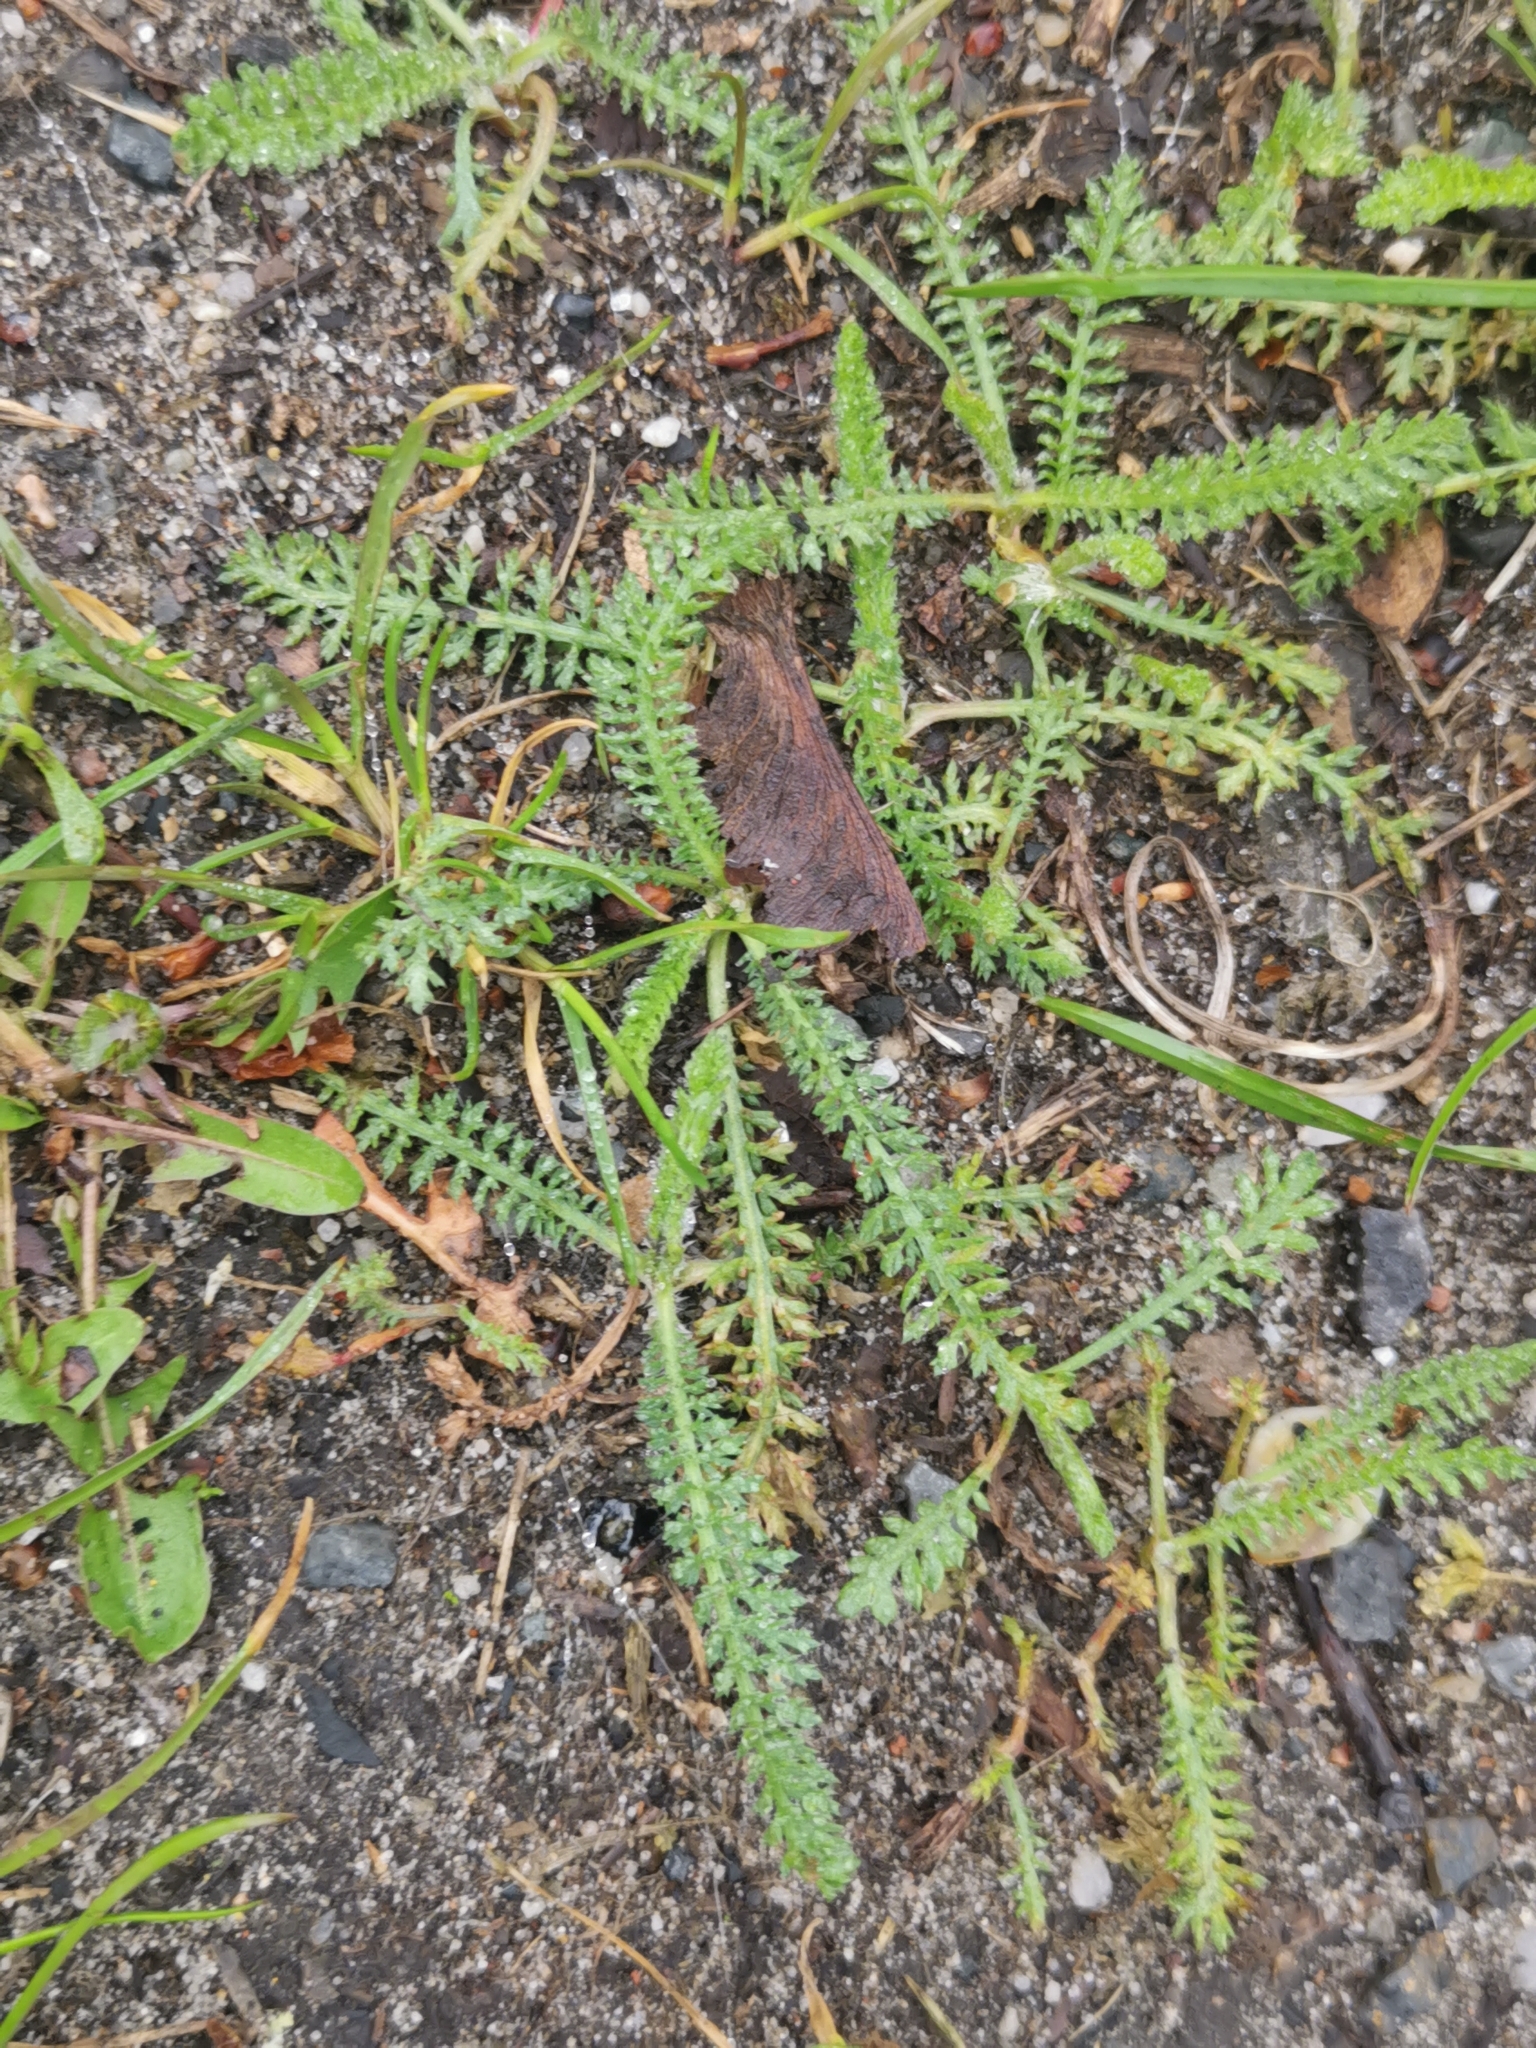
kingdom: Plantae
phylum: Tracheophyta
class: Magnoliopsida
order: Asterales
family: Asteraceae
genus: Achillea
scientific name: Achillea millefolium
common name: Yarrow
